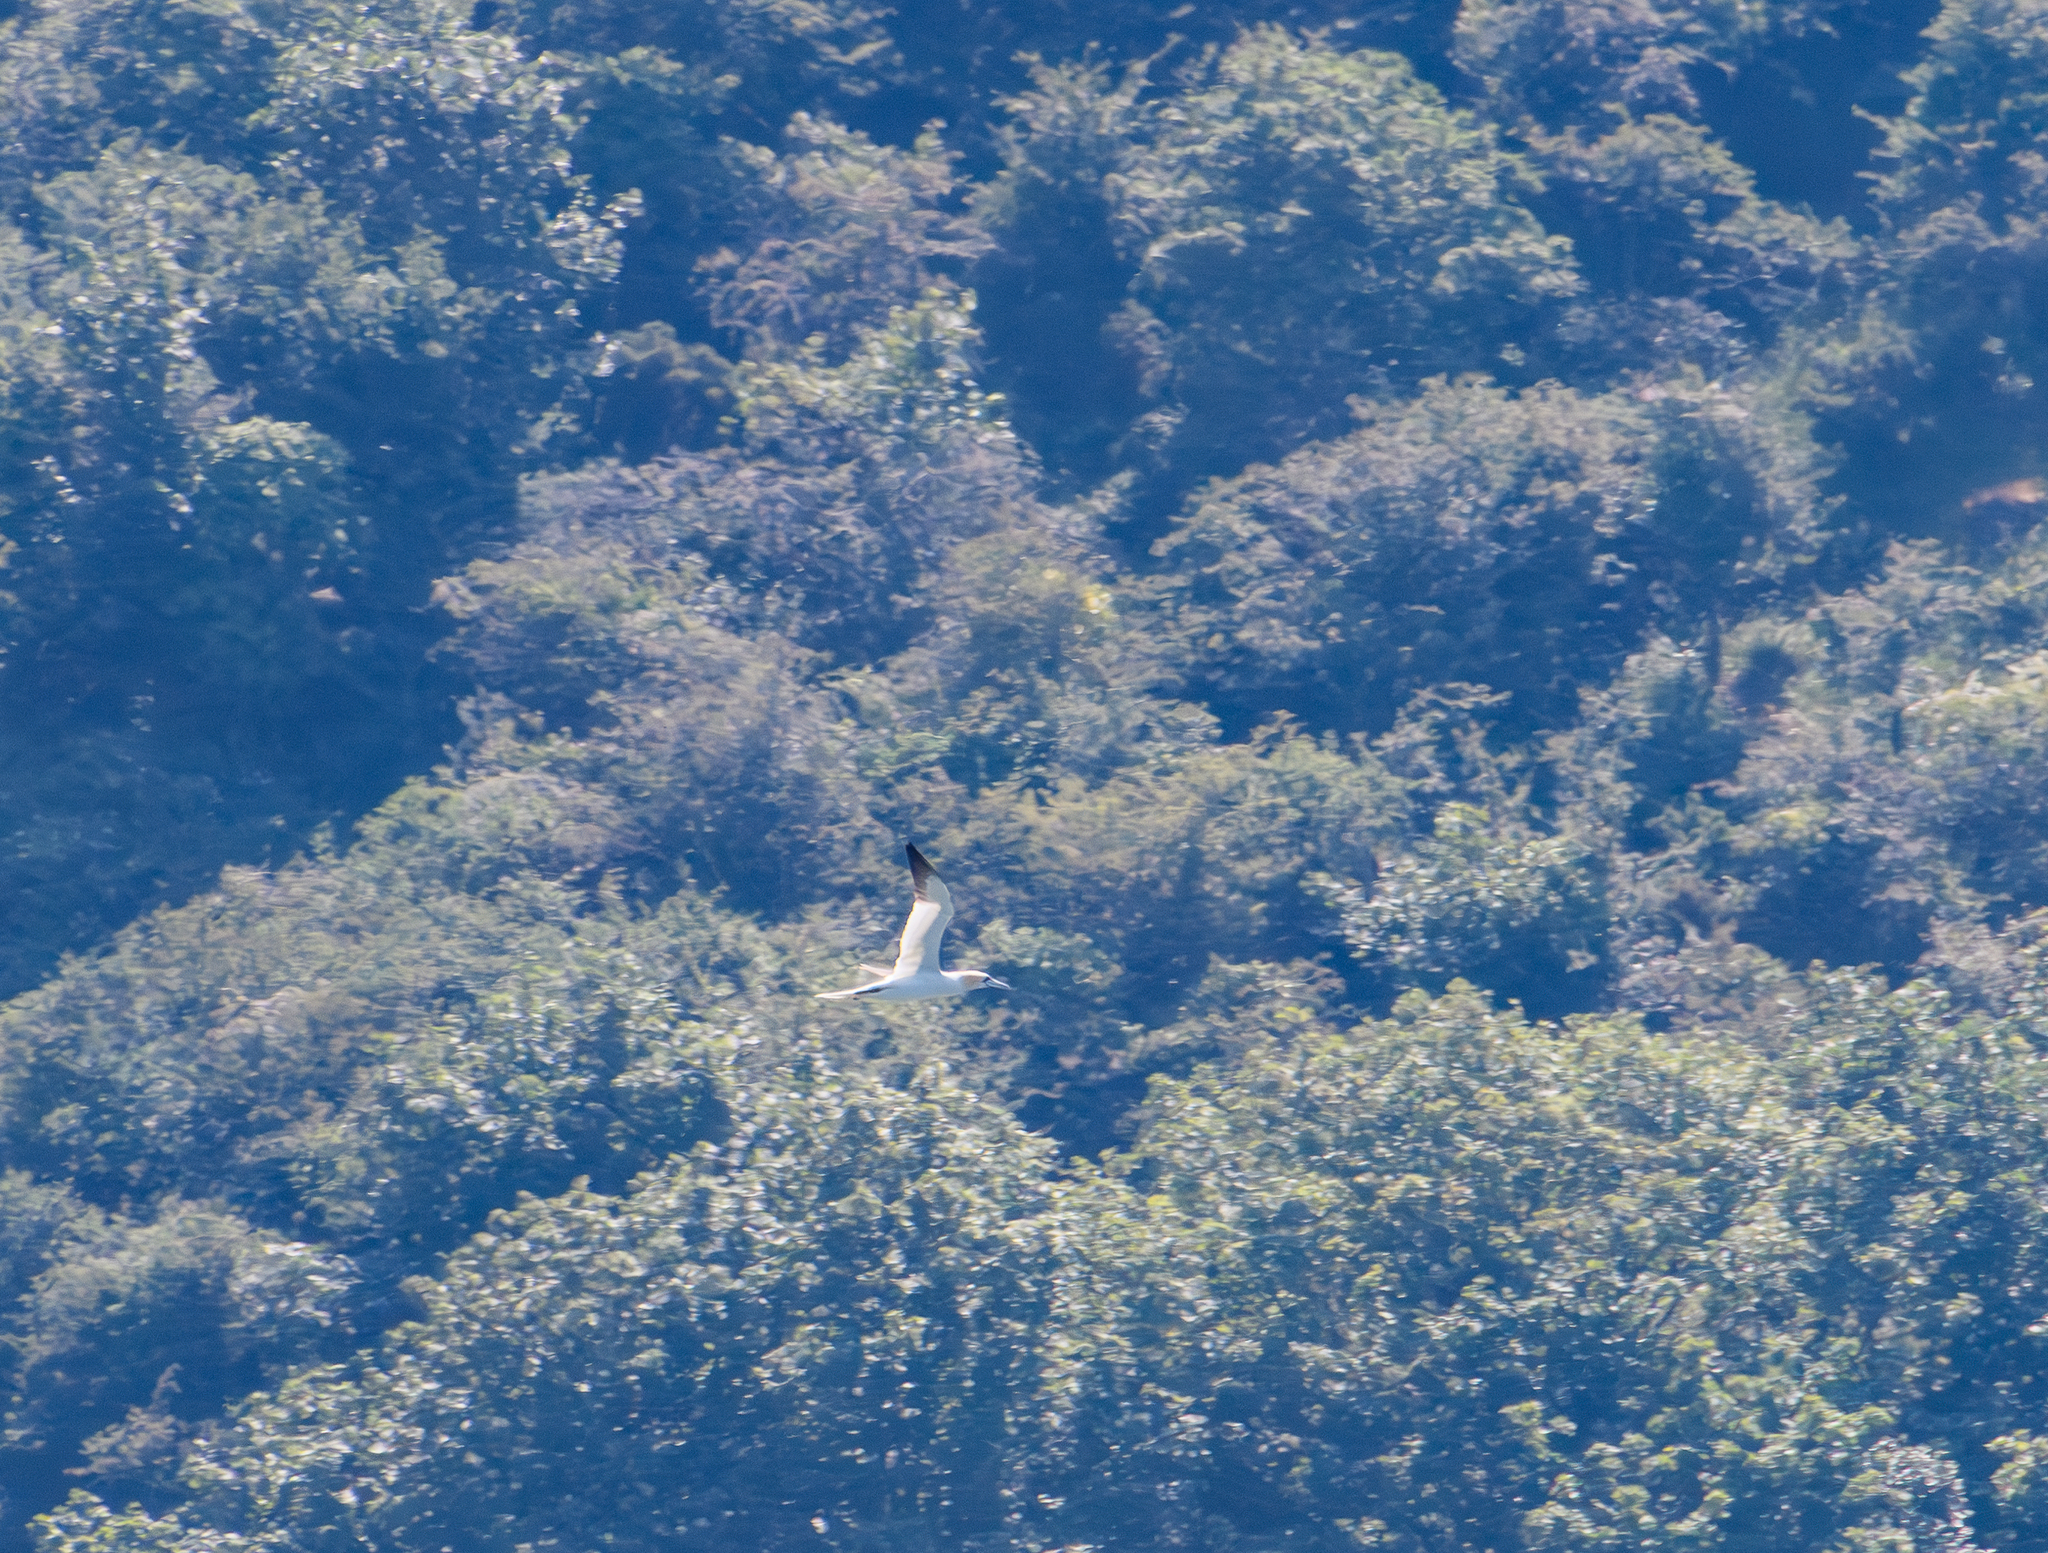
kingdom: Animalia
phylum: Chordata
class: Aves
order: Suliformes
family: Sulidae
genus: Morus
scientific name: Morus bassanus
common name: Northern gannet
